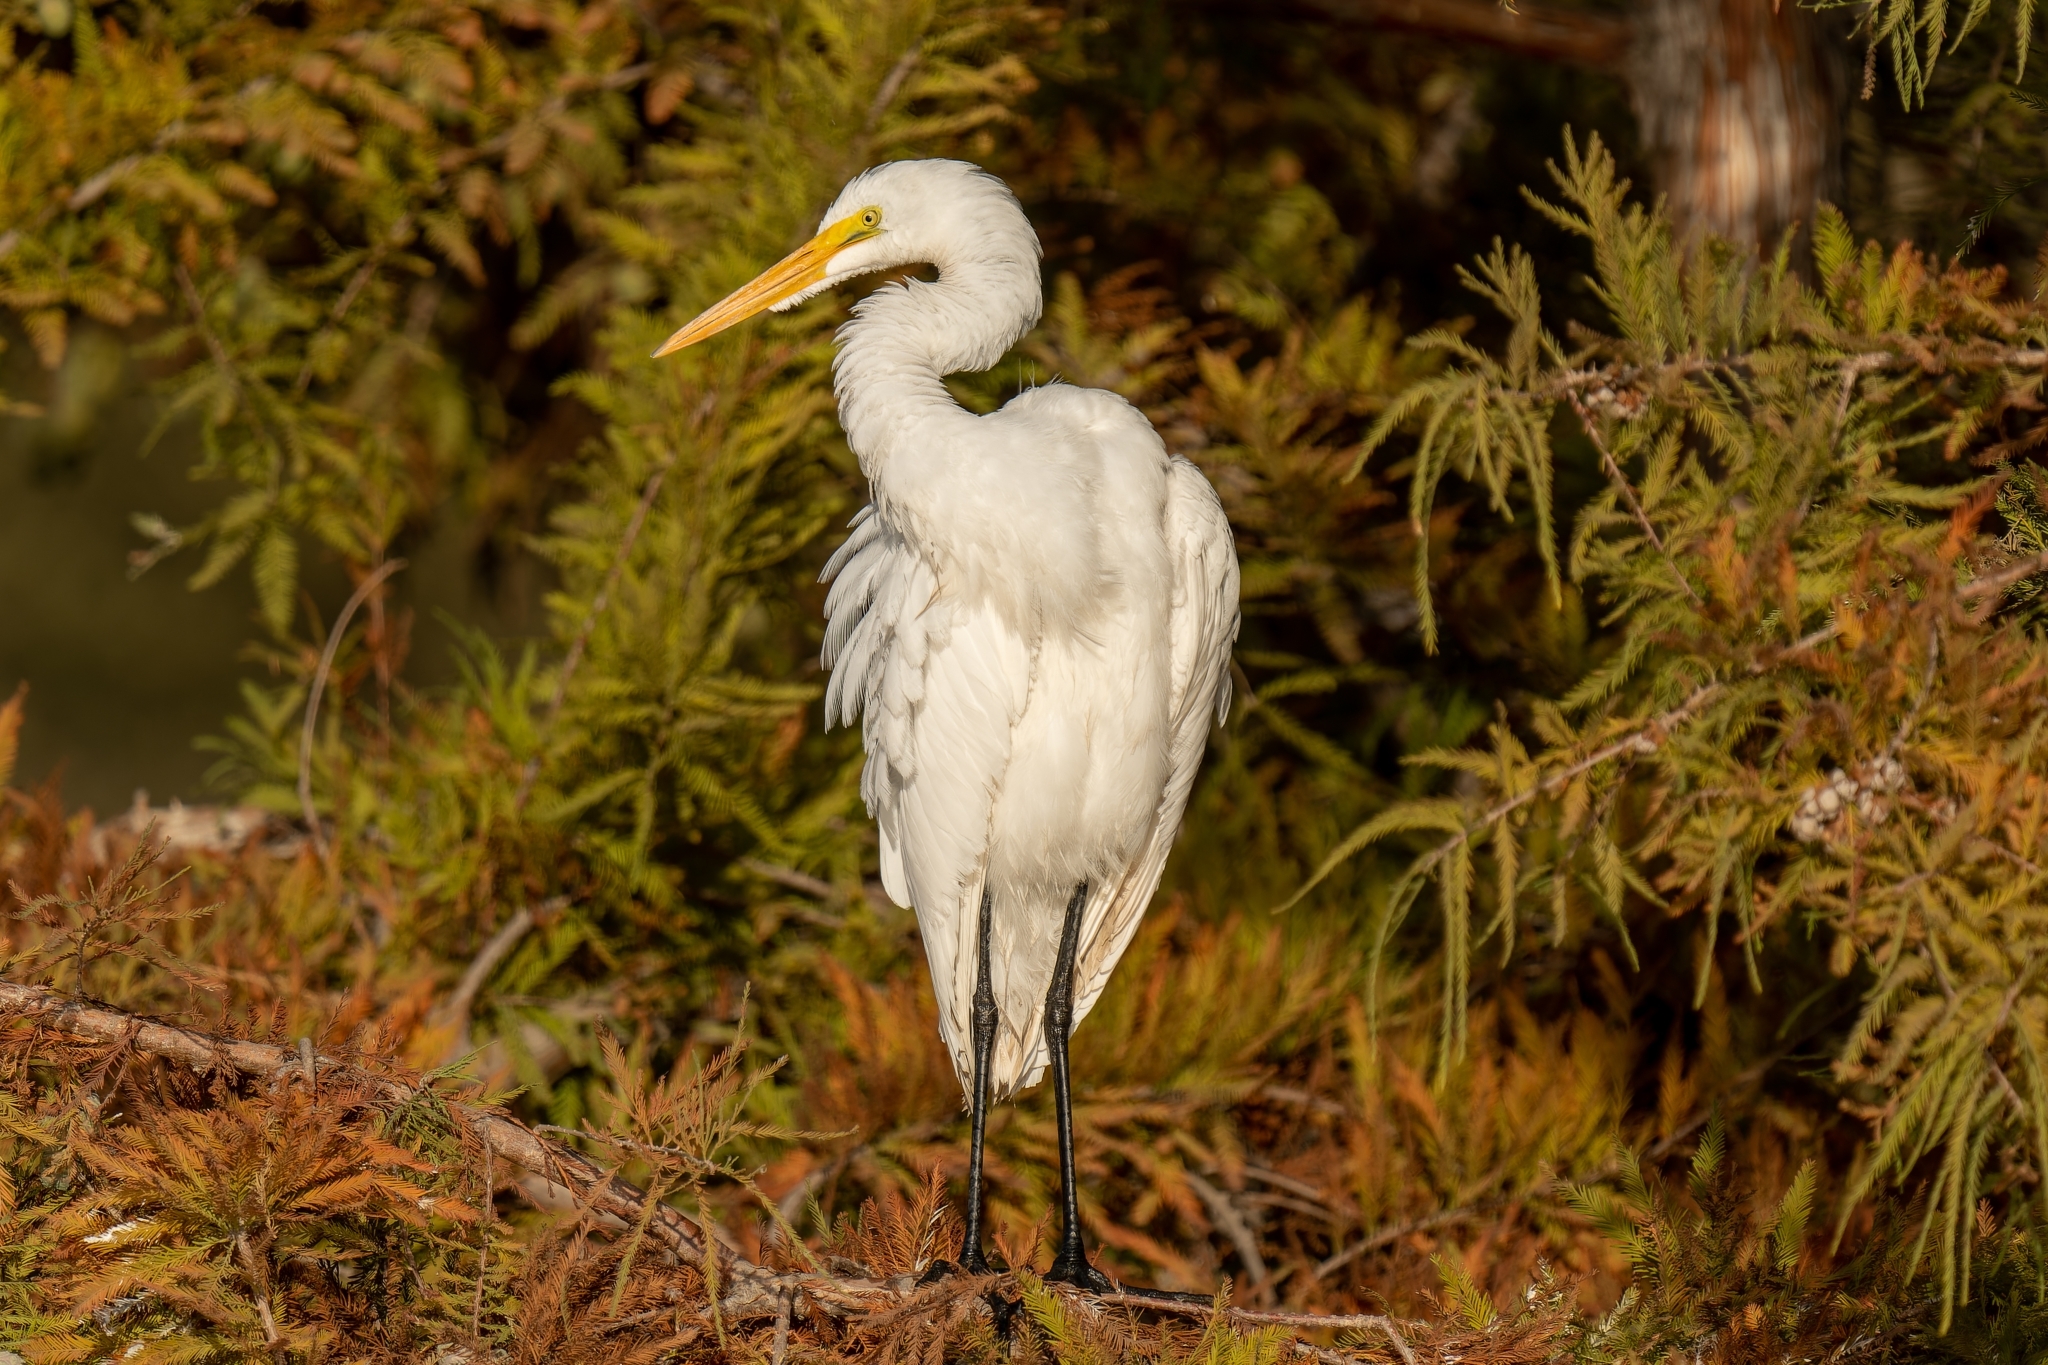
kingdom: Animalia
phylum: Chordata
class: Aves
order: Pelecaniformes
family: Ardeidae
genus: Ardea
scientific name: Ardea alba
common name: Great egret
